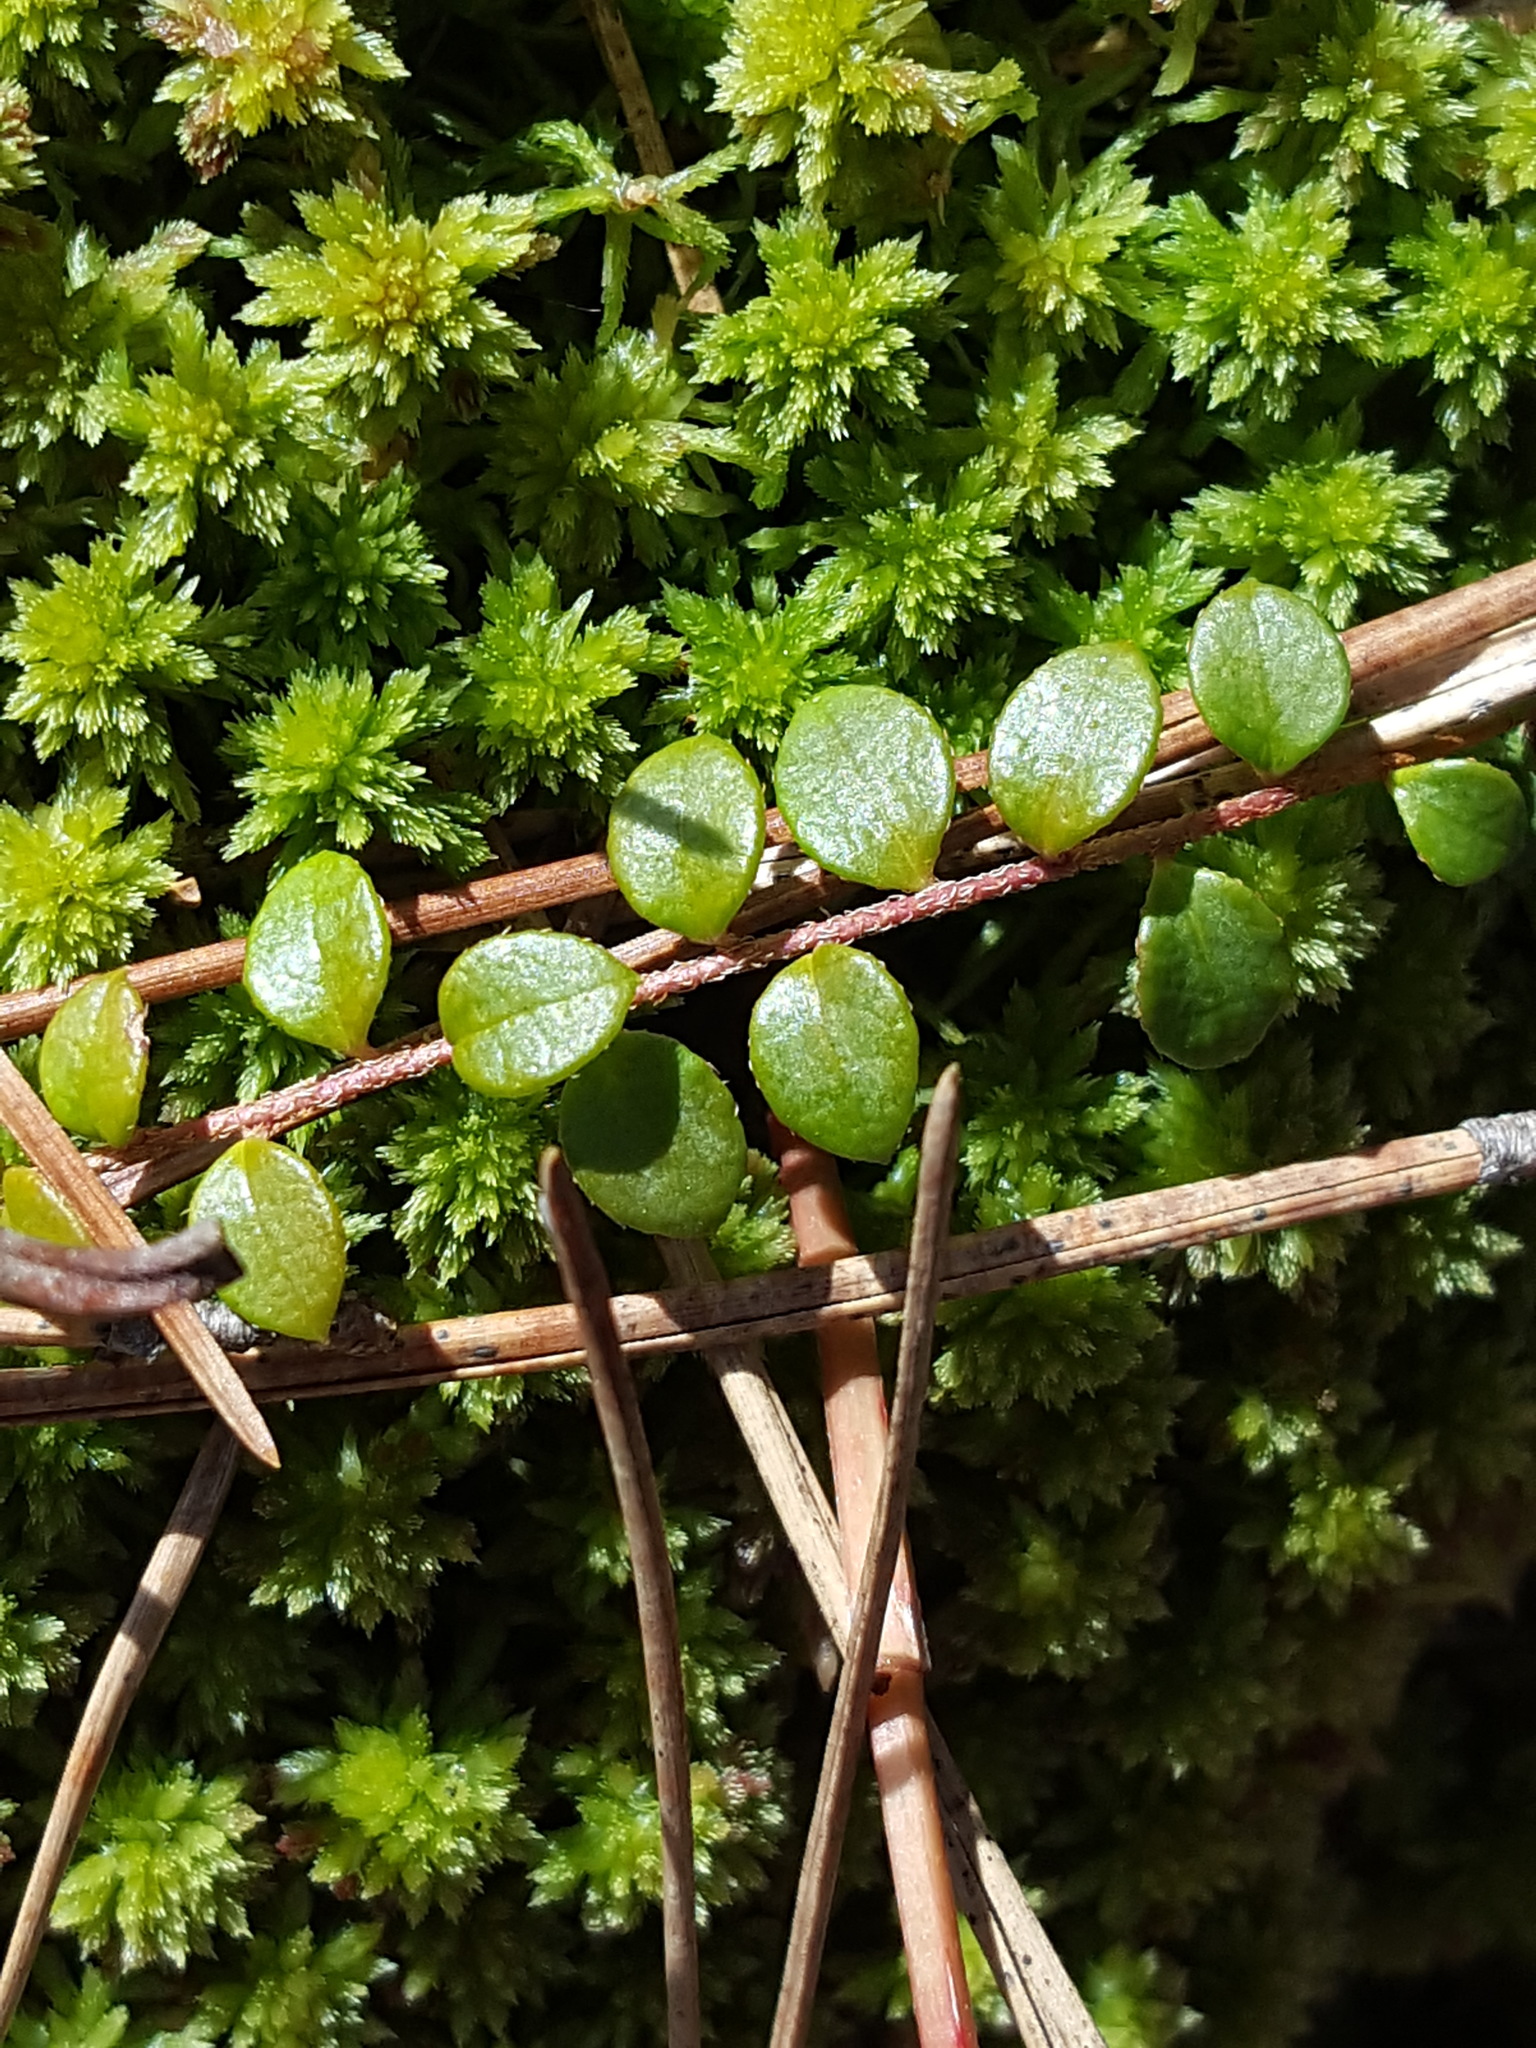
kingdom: Plantae
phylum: Tracheophyta
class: Magnoliopsida
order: Ericales
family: Ericaceae
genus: Gaultheria
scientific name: Gaultheria hispidula
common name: Cancer wintergreen
